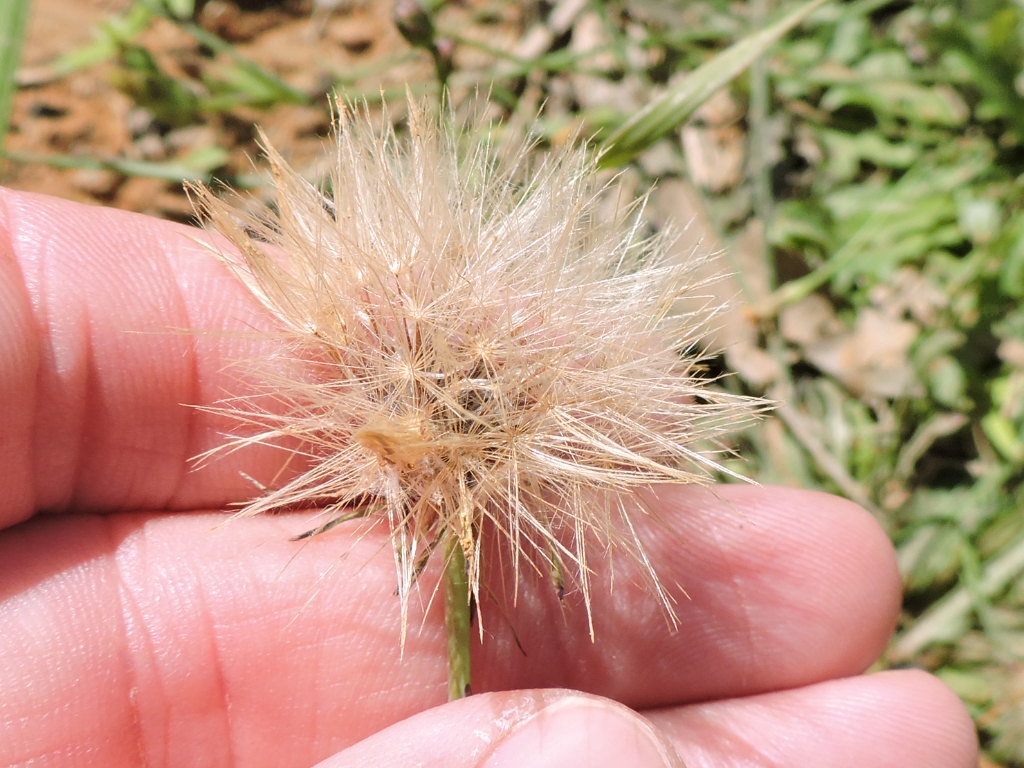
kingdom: Plantae
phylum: Tracheophyta
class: Magnoliopsida
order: Asterales
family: Asteraceae
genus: Hypochaeris
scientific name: Hypochaeris glabra
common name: Smooth catsear
